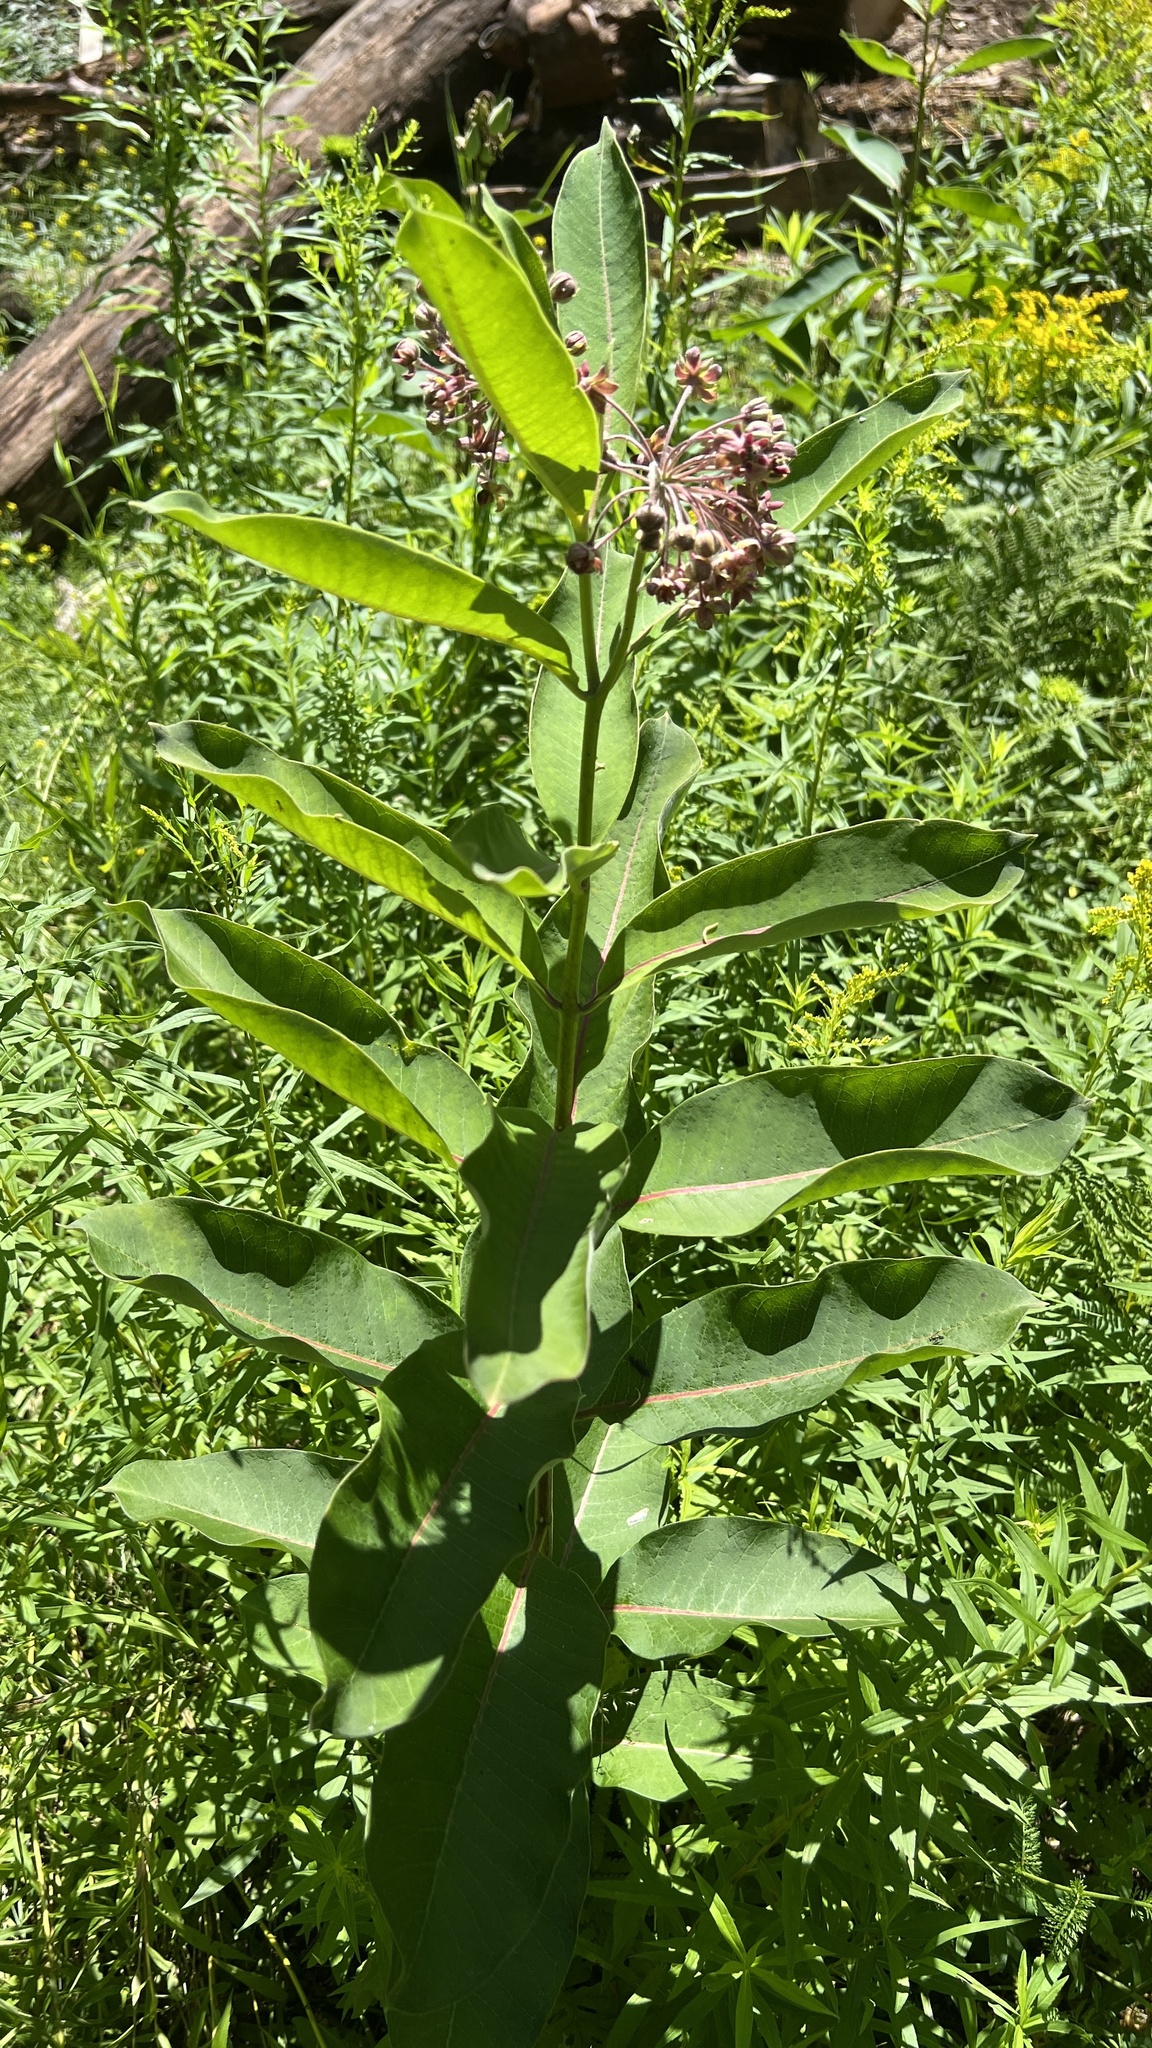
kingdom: Plantae
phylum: Tracheophyta
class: Magnoliopsida
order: Gentianales
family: Apocynaceae
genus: Asclepias
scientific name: Asclepias syriaca
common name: Common milkweed
